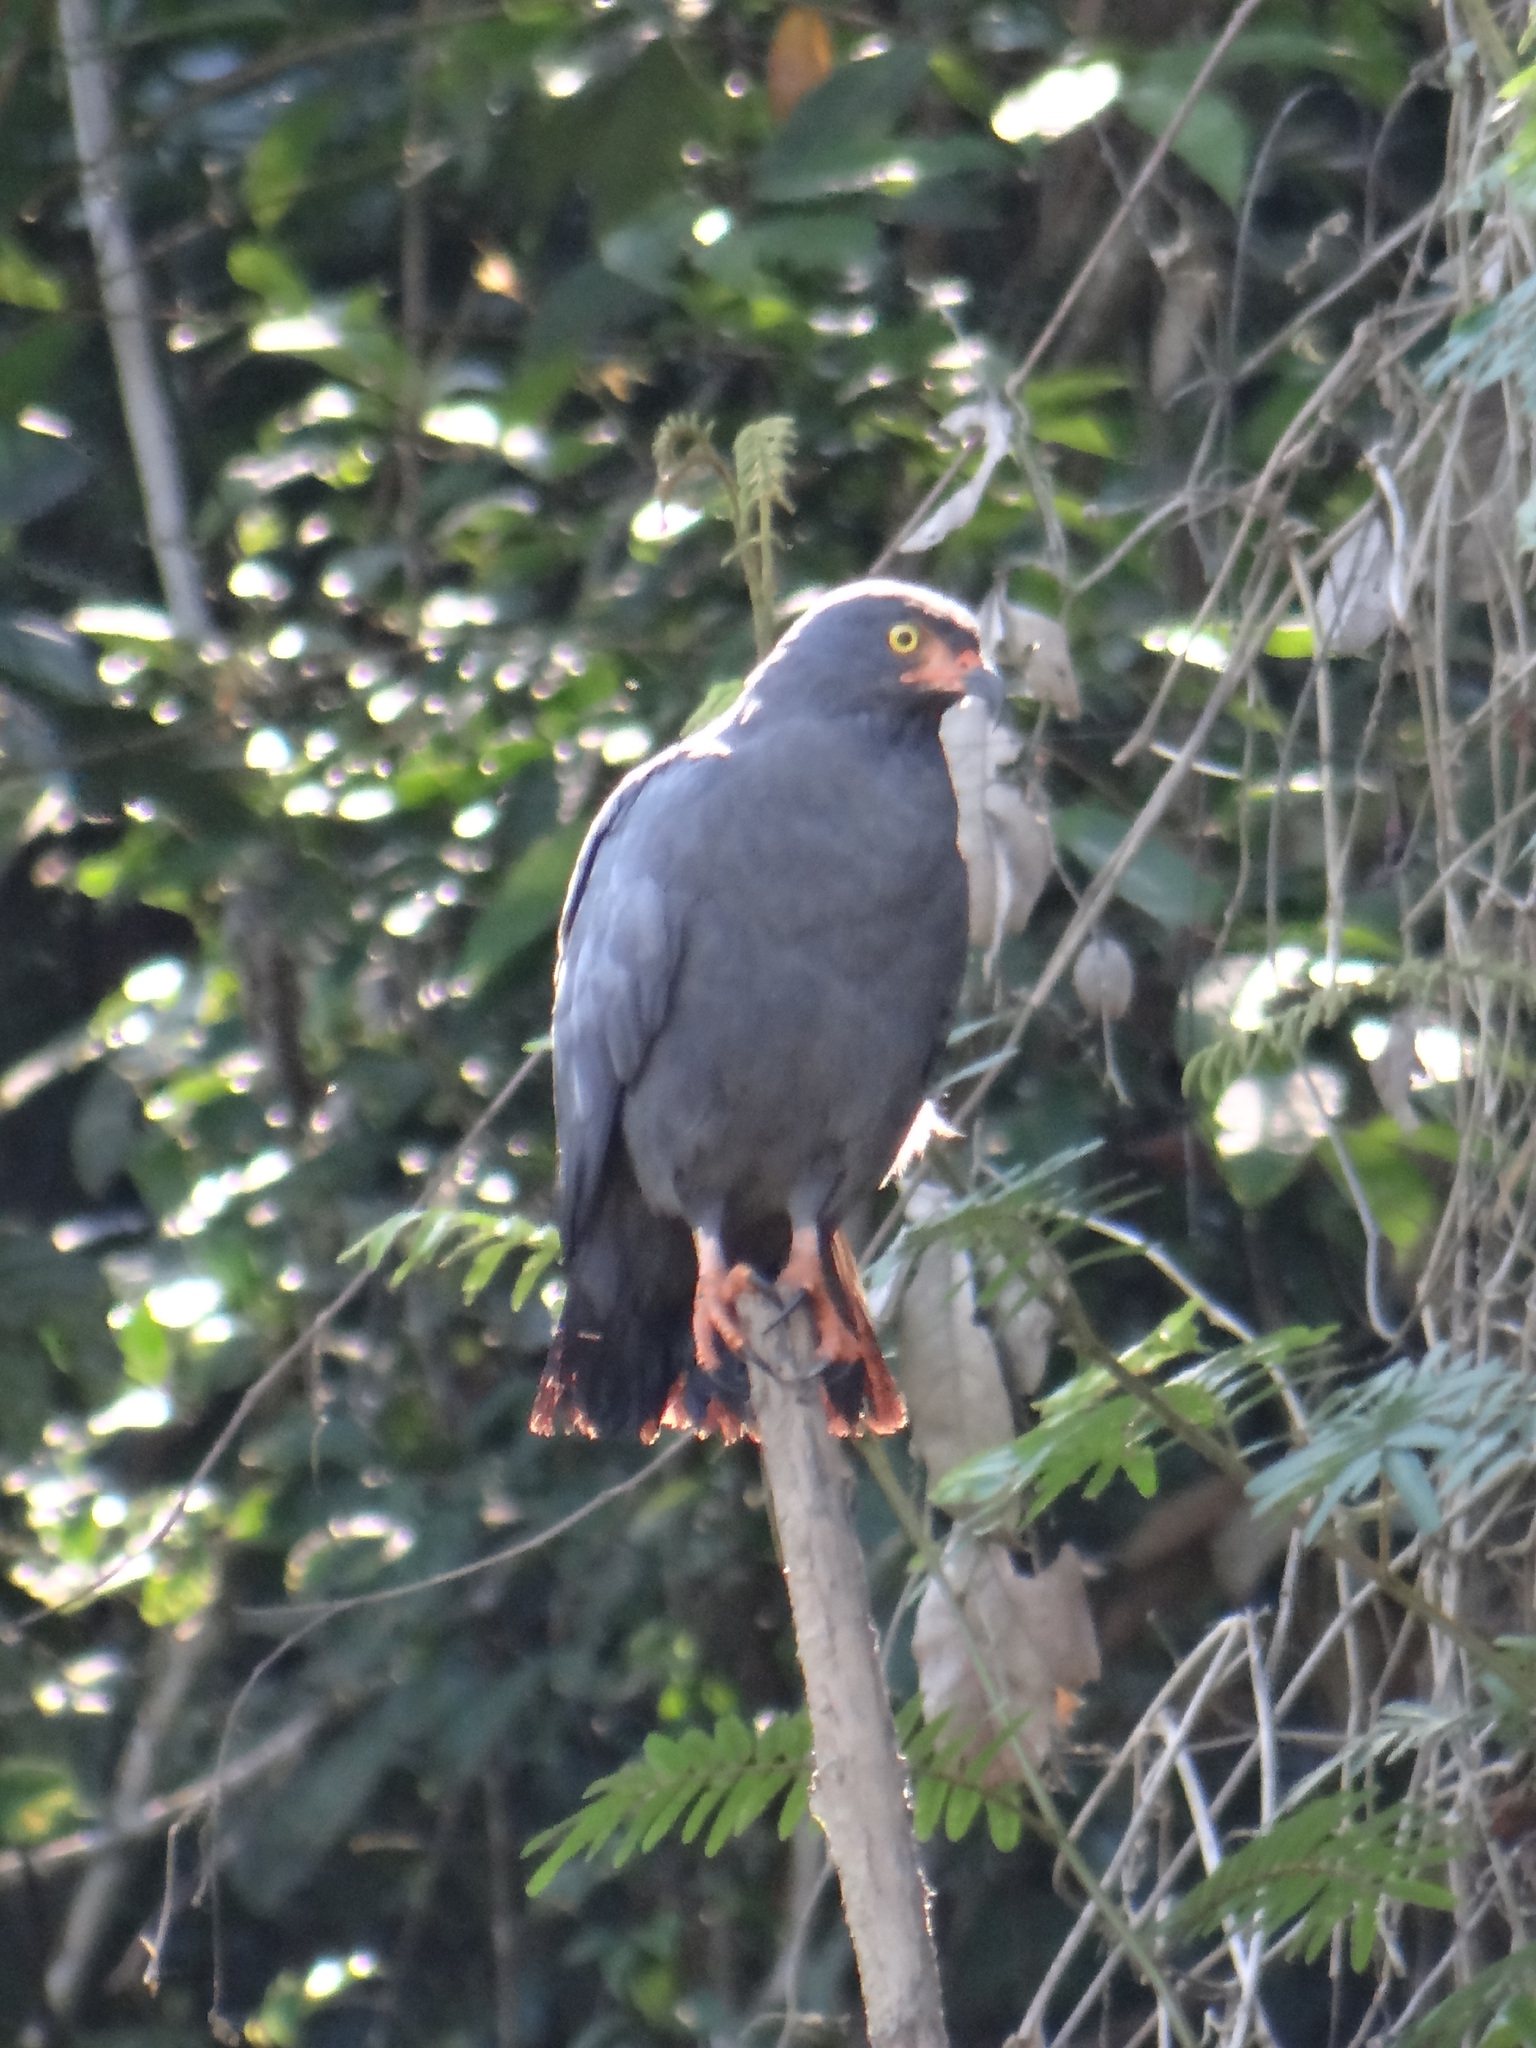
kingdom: Animalia
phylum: Chordata
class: Aves
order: Accipitriformes
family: Accipitridae
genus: Helicolestes
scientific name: Helicolestes hamatus
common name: Slender-billed kite
